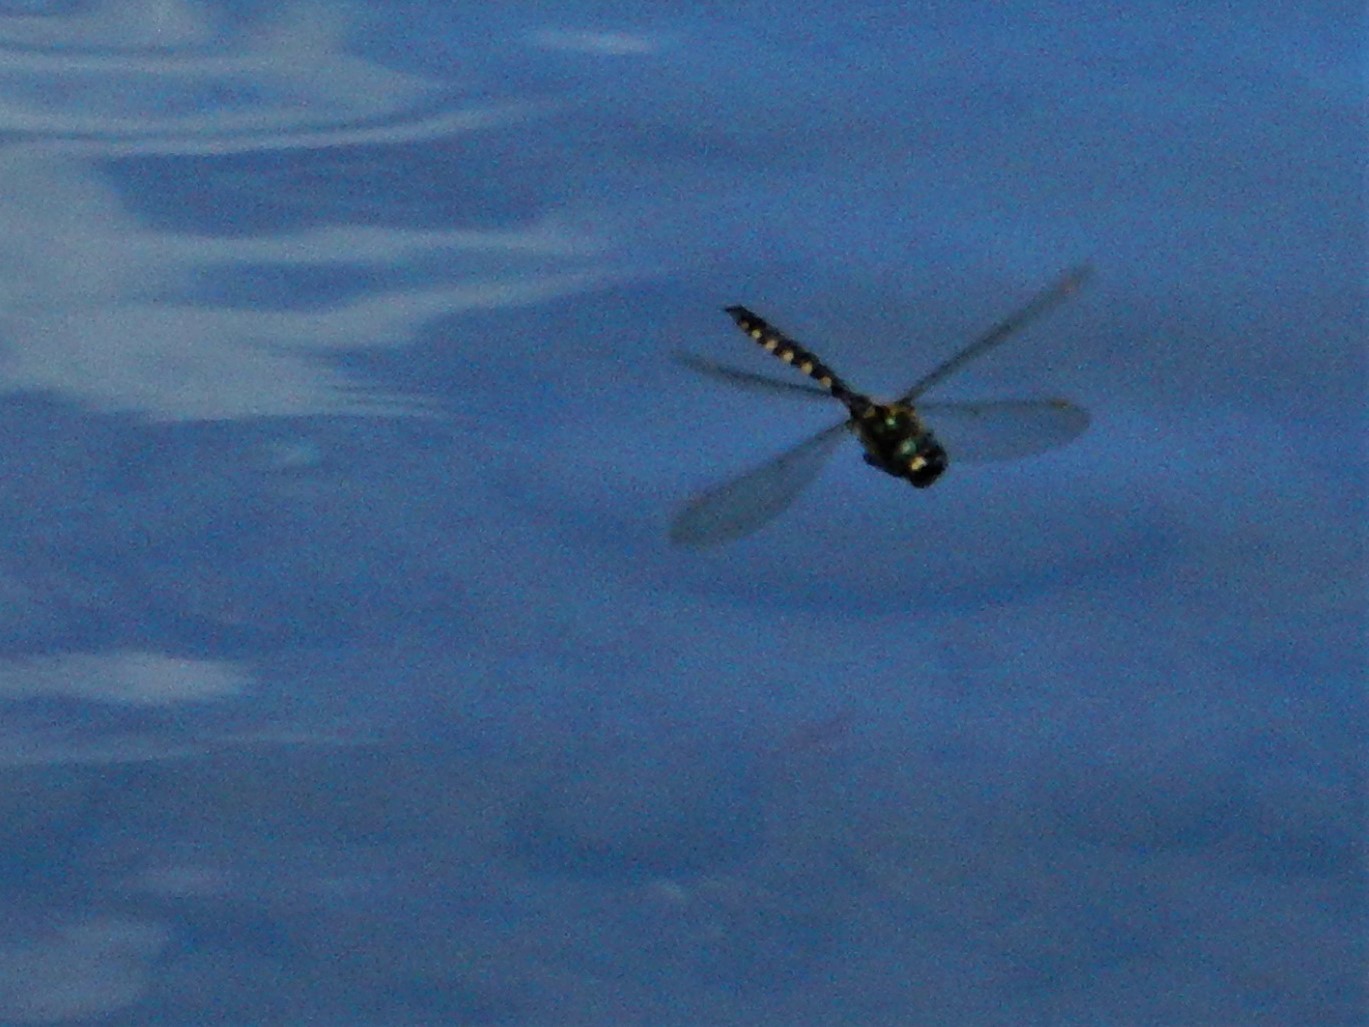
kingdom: Animalia
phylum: Arthropoda
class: Insecta
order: Odonata
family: Corduliidae
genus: Procordulia
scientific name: Procordulia grayi
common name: Yellow spotted dragonfly
